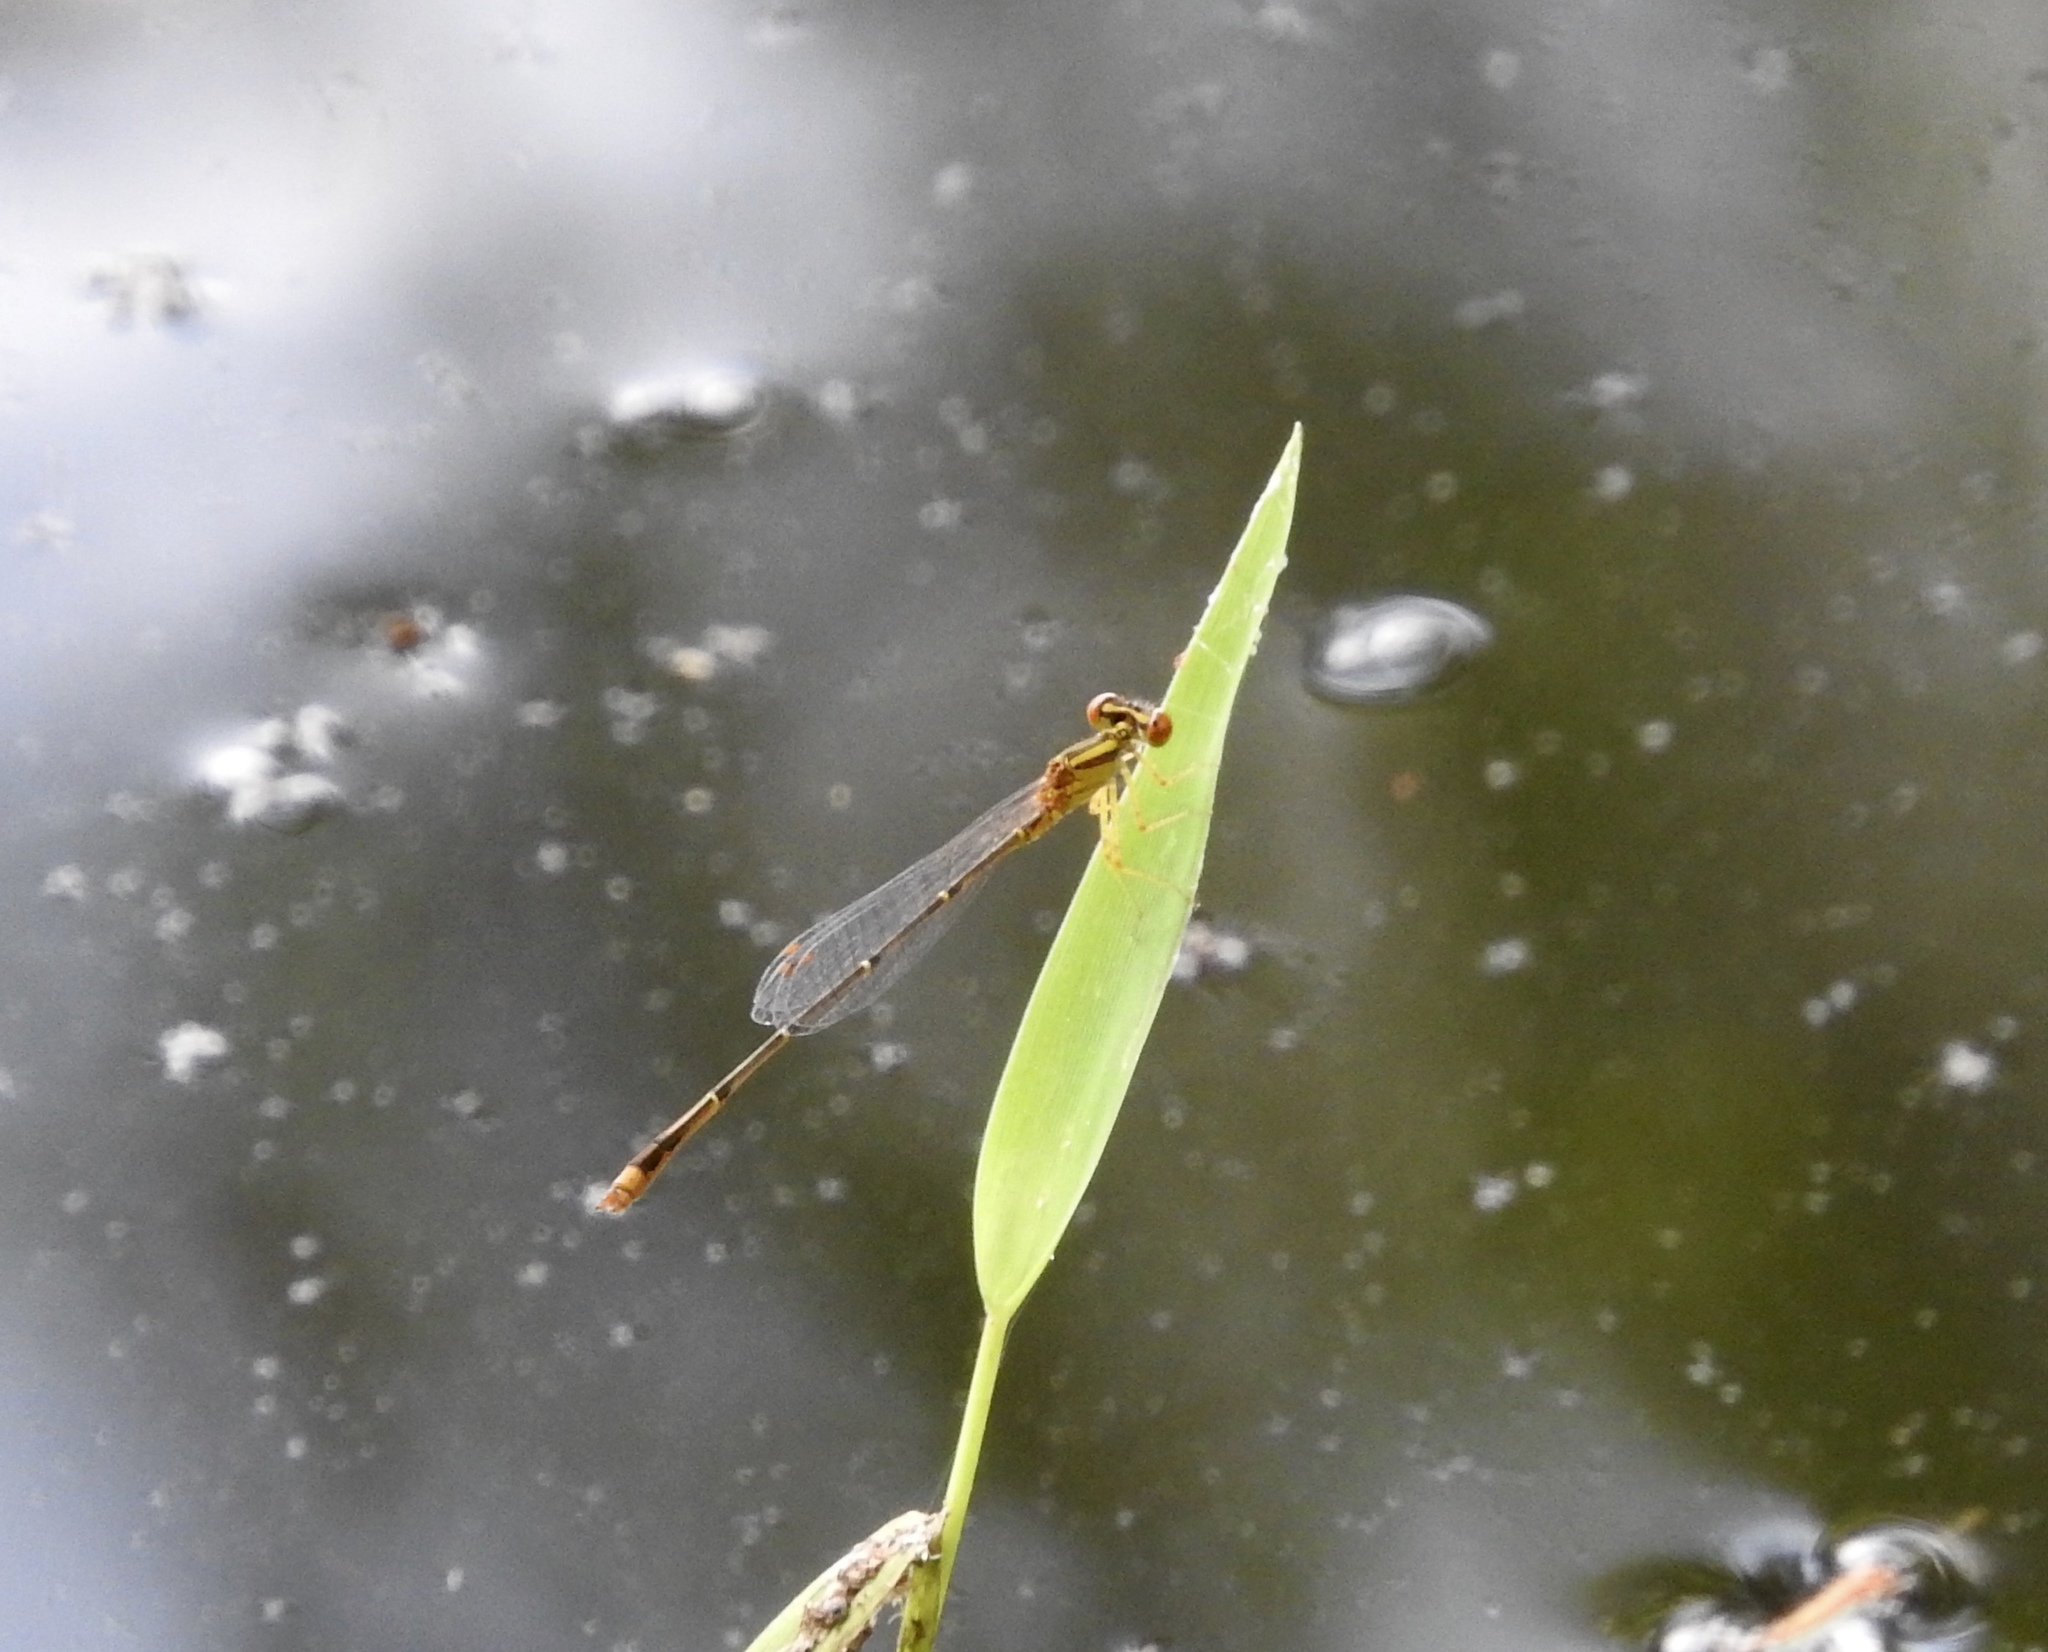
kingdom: Animalia
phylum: Arthropoda
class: Insecta
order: Odonata
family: Coenagrionidae
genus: Enallagma
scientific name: Enallagma signatum
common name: Orange bluet
